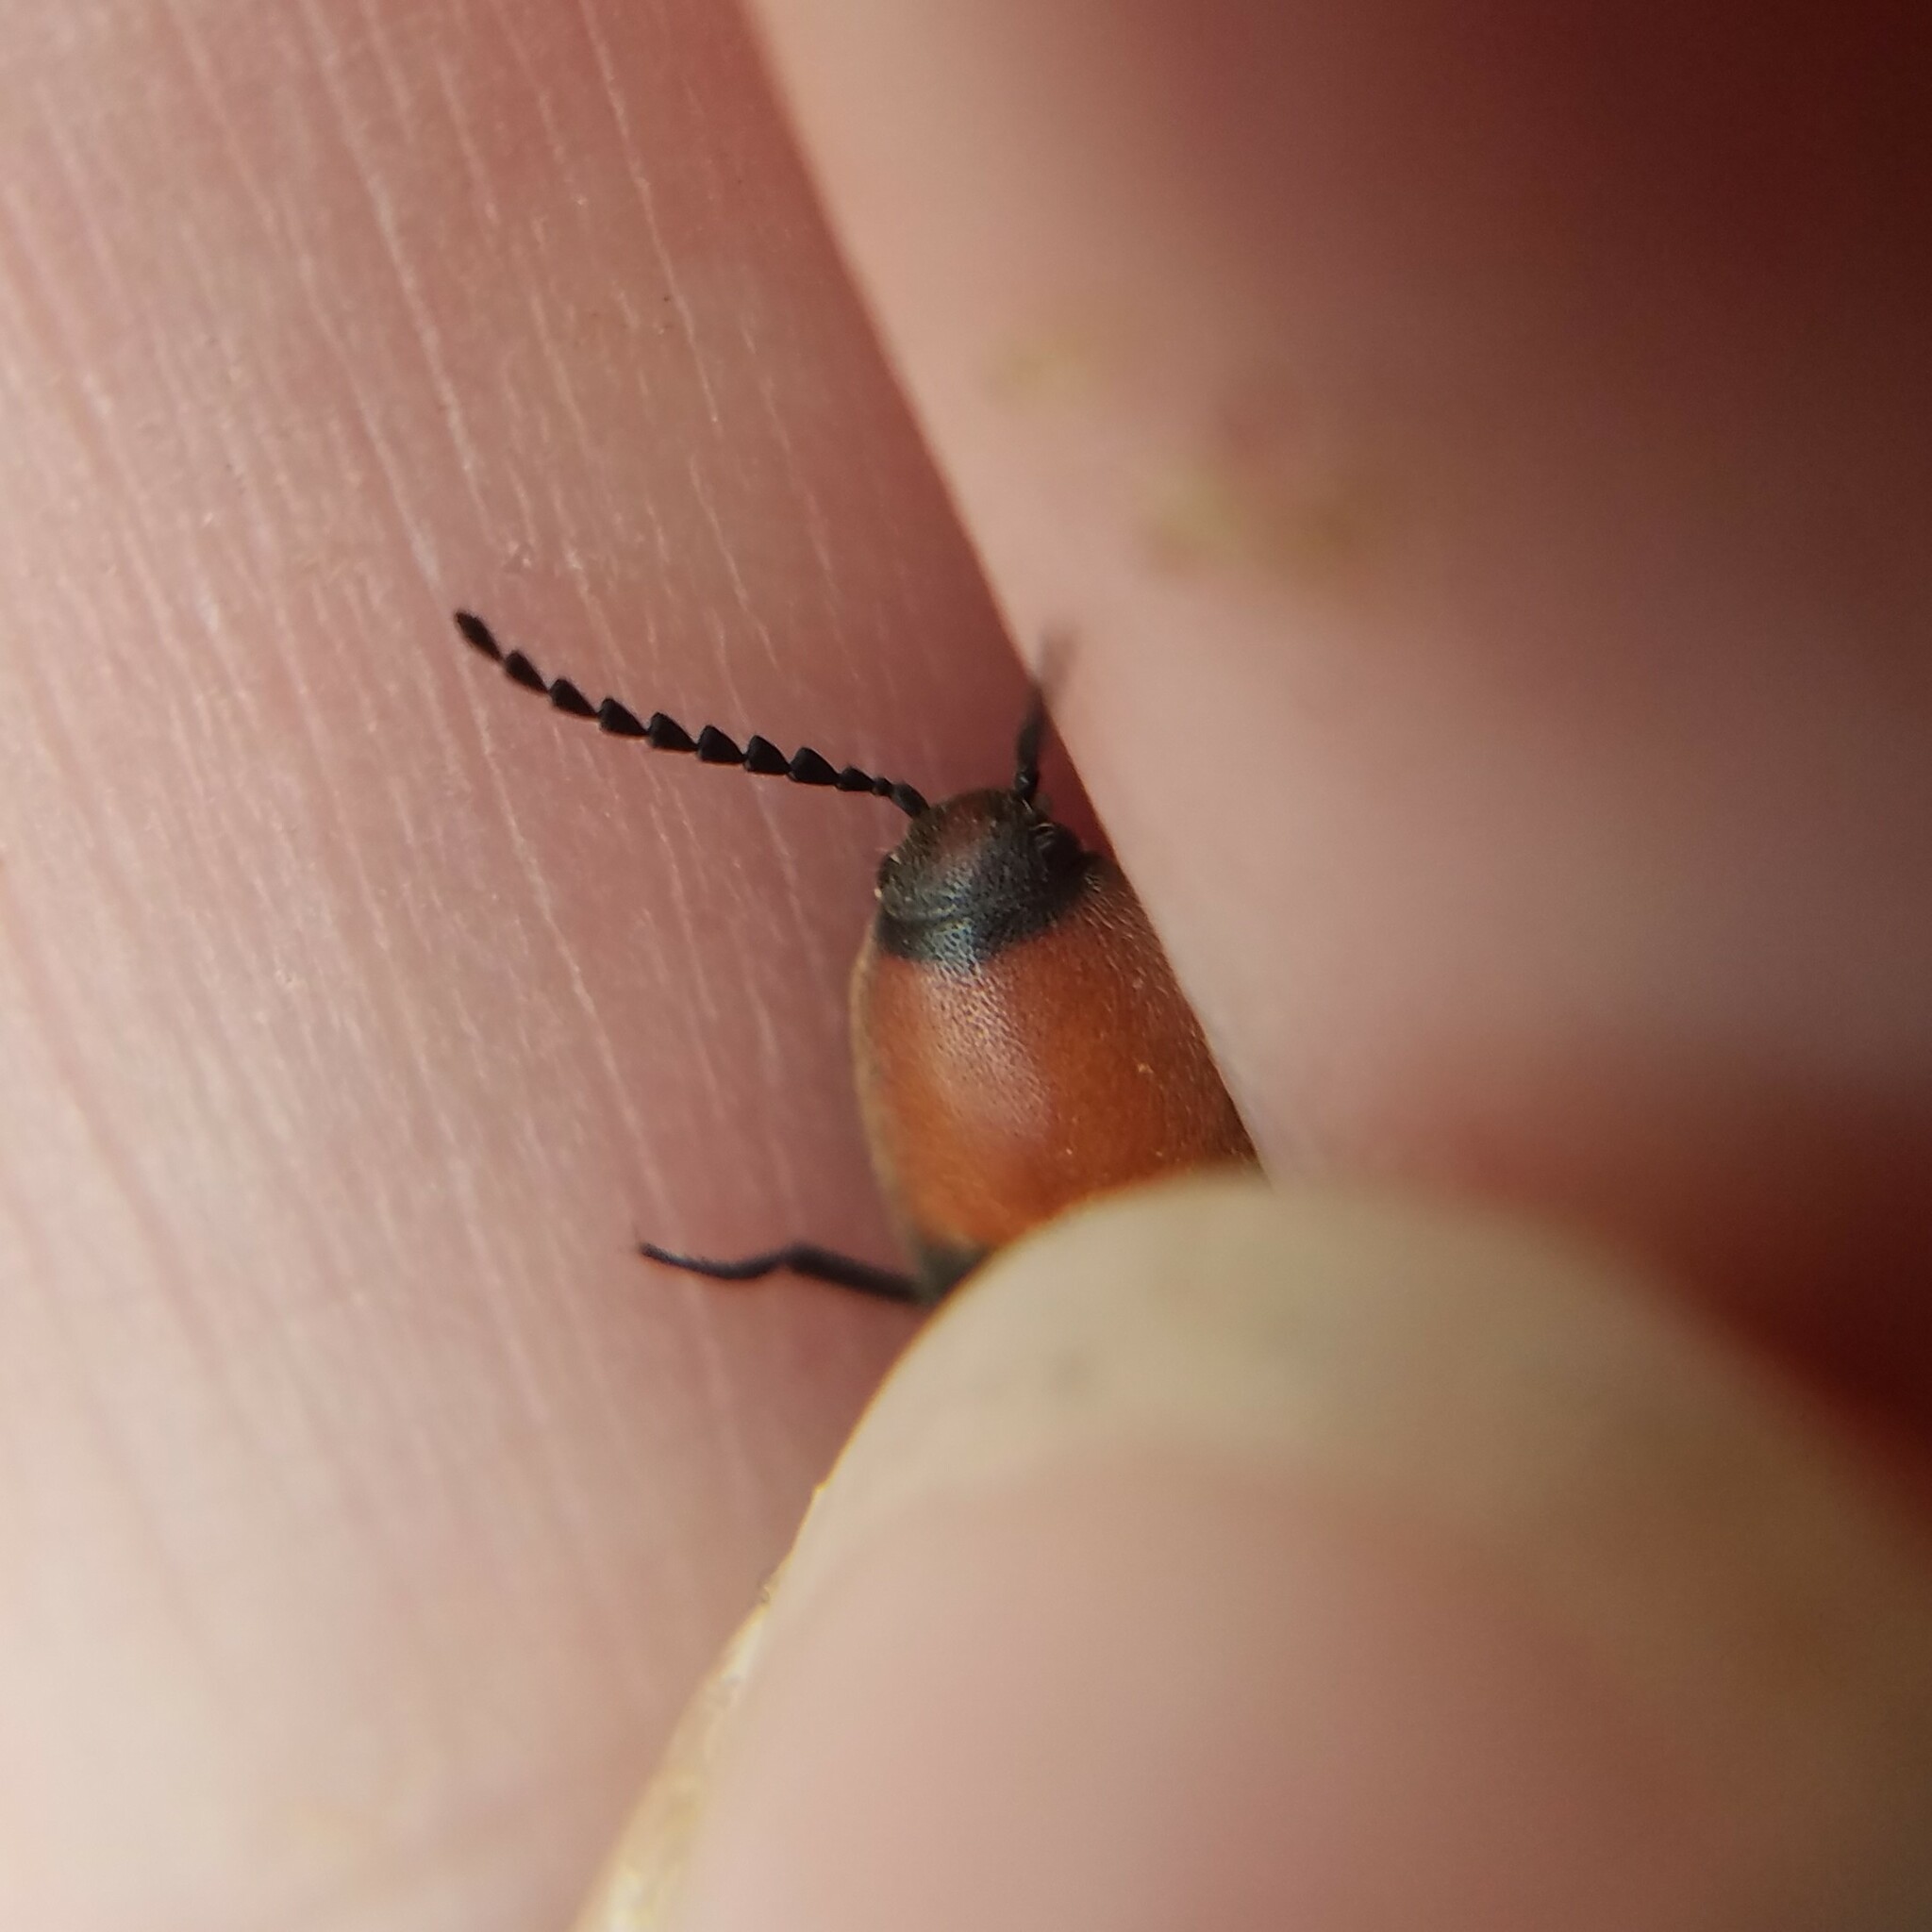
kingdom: Animalia
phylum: Arthropoda
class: Insecta
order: Coleoptera
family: Elateridae
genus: Ampedus
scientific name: Ampedus rubricollis
